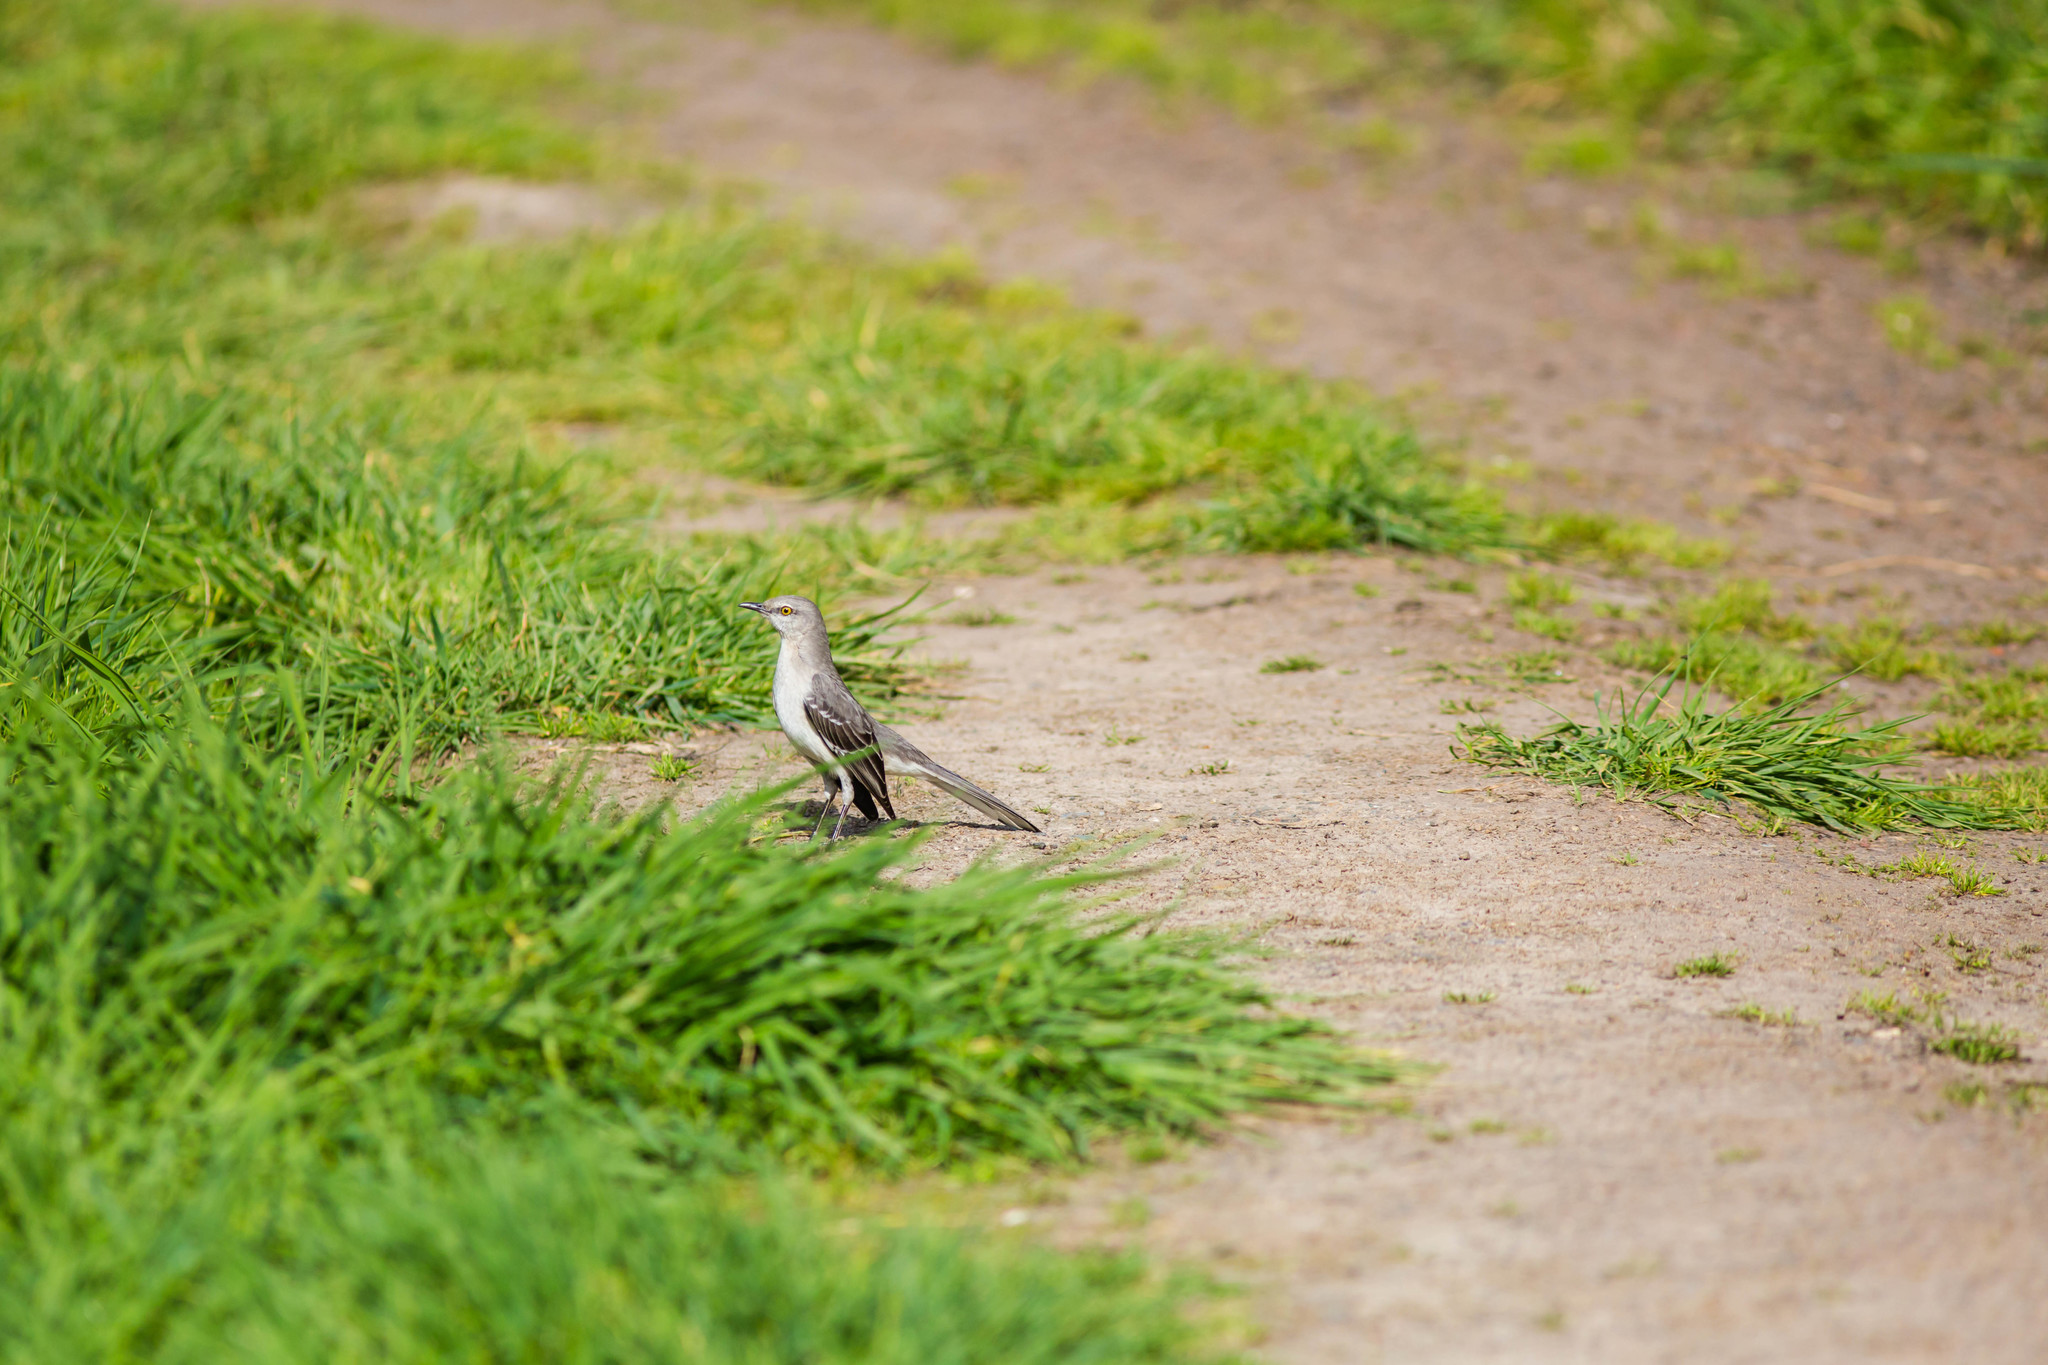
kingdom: Animalia
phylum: Chordata
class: Aves
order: Passeriformes
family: Mimidae
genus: Mimus
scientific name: Mimus polyglottos
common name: Northern mockingbird
